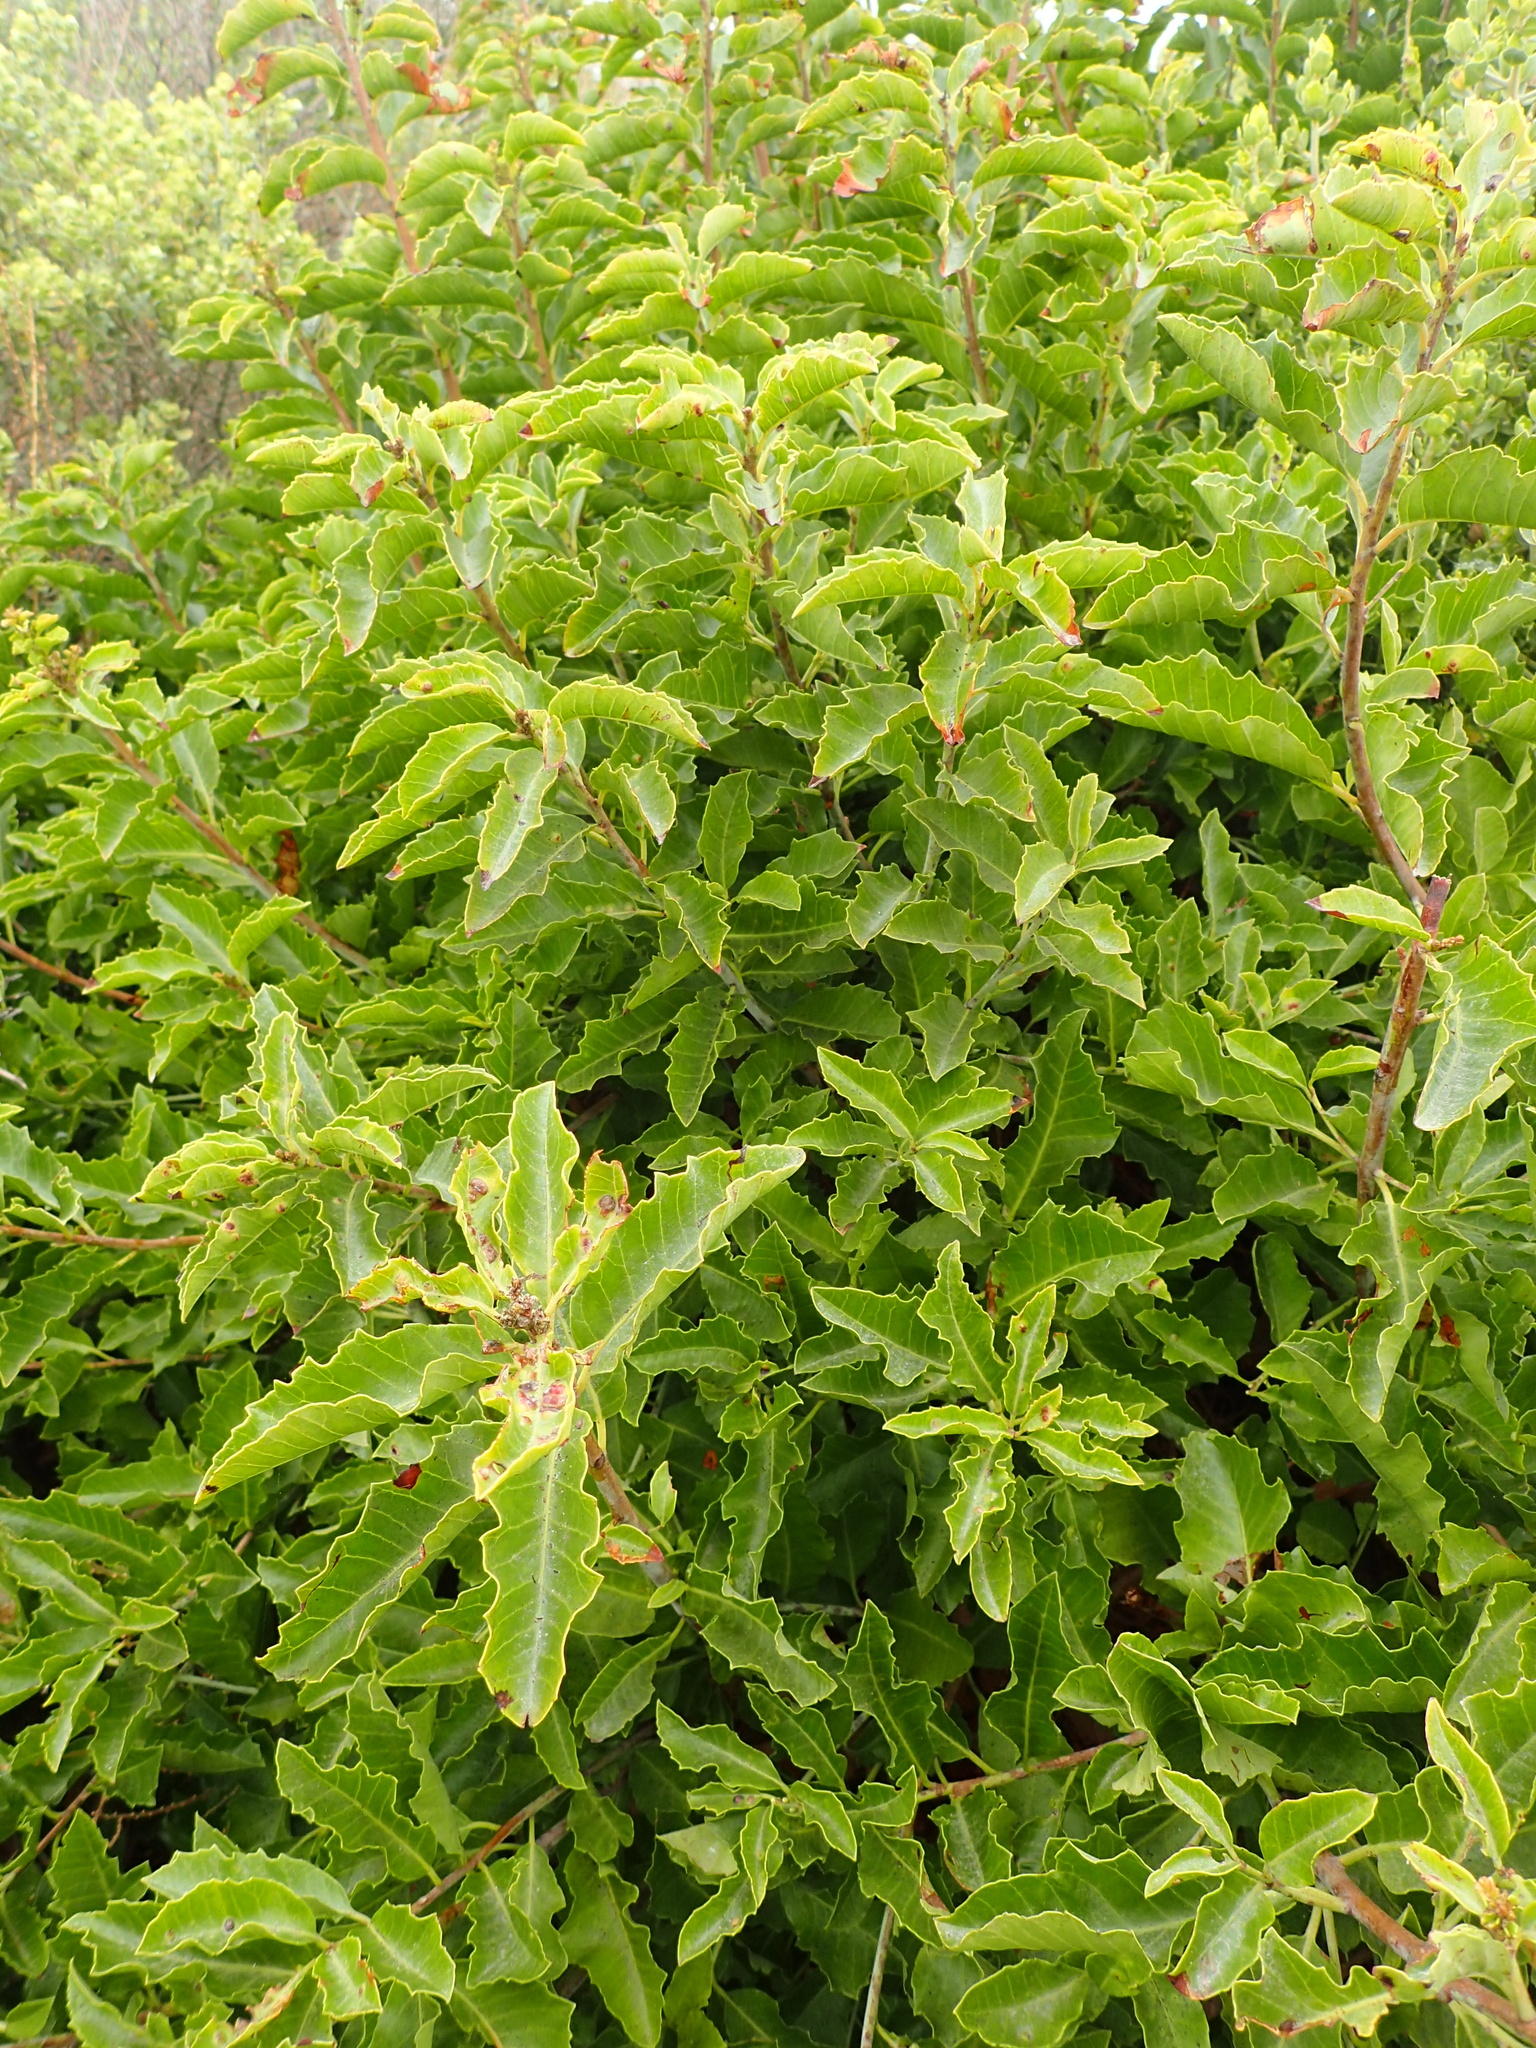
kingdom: Plantae
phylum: Tracheophyta
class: Magnoliopsida
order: Sapindales
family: Anacardiaceae
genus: Schinus
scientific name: Schinus latifolia
